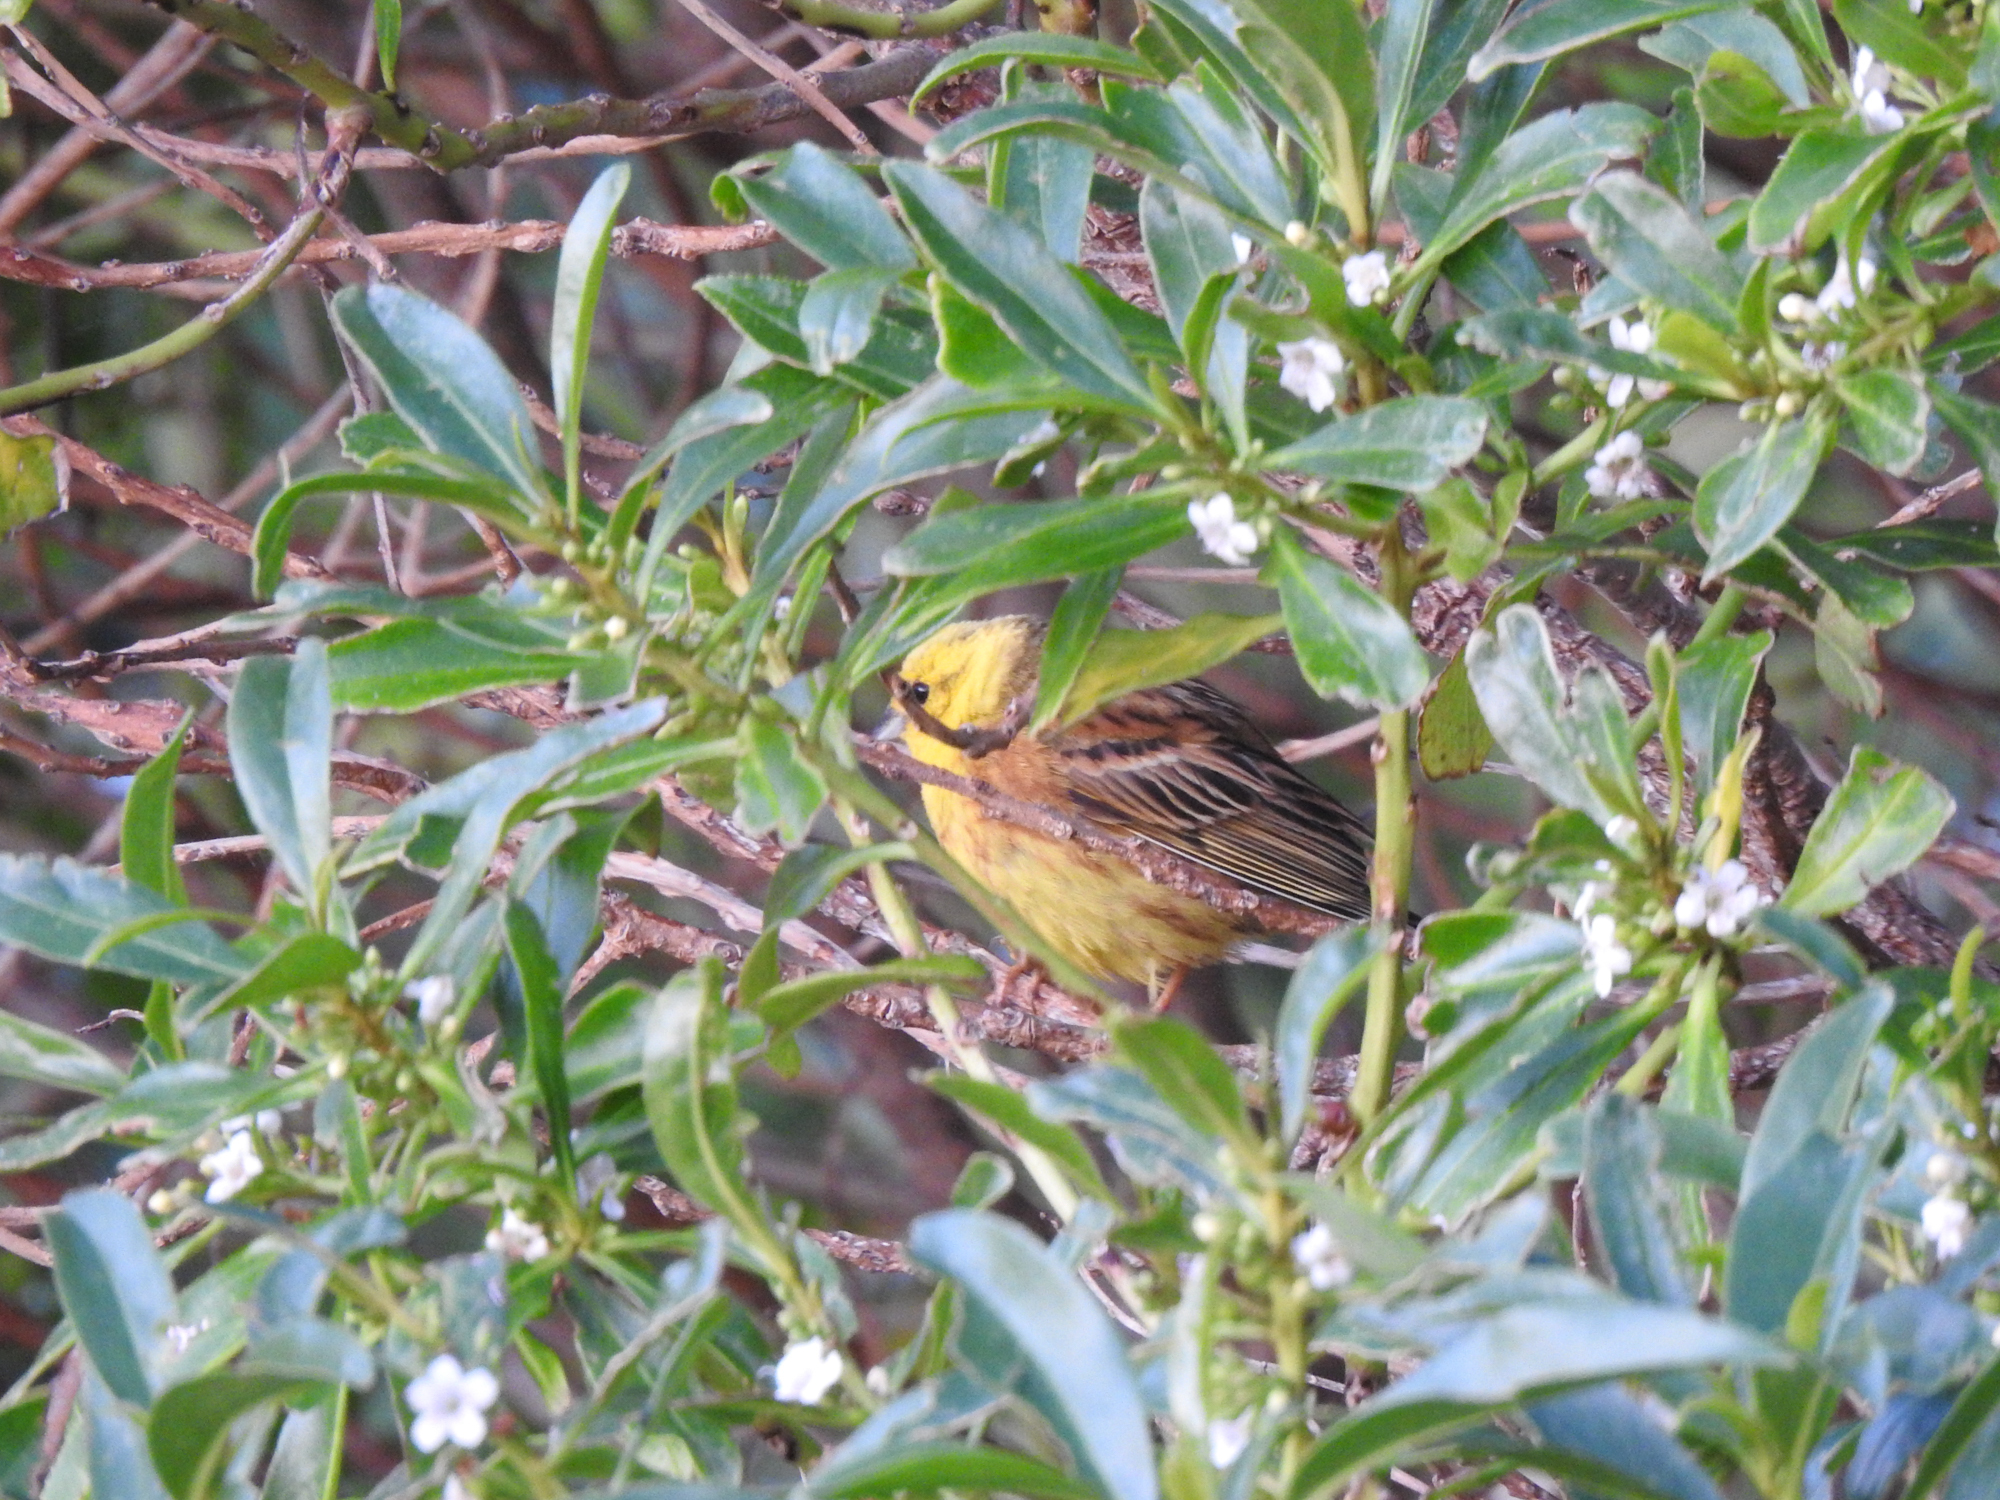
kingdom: Animalia
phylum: Chordata
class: Aves
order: Passeriformes
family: Emberizidae
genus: Emberiza
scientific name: Emberiza citrinella
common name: Yellowhammer
